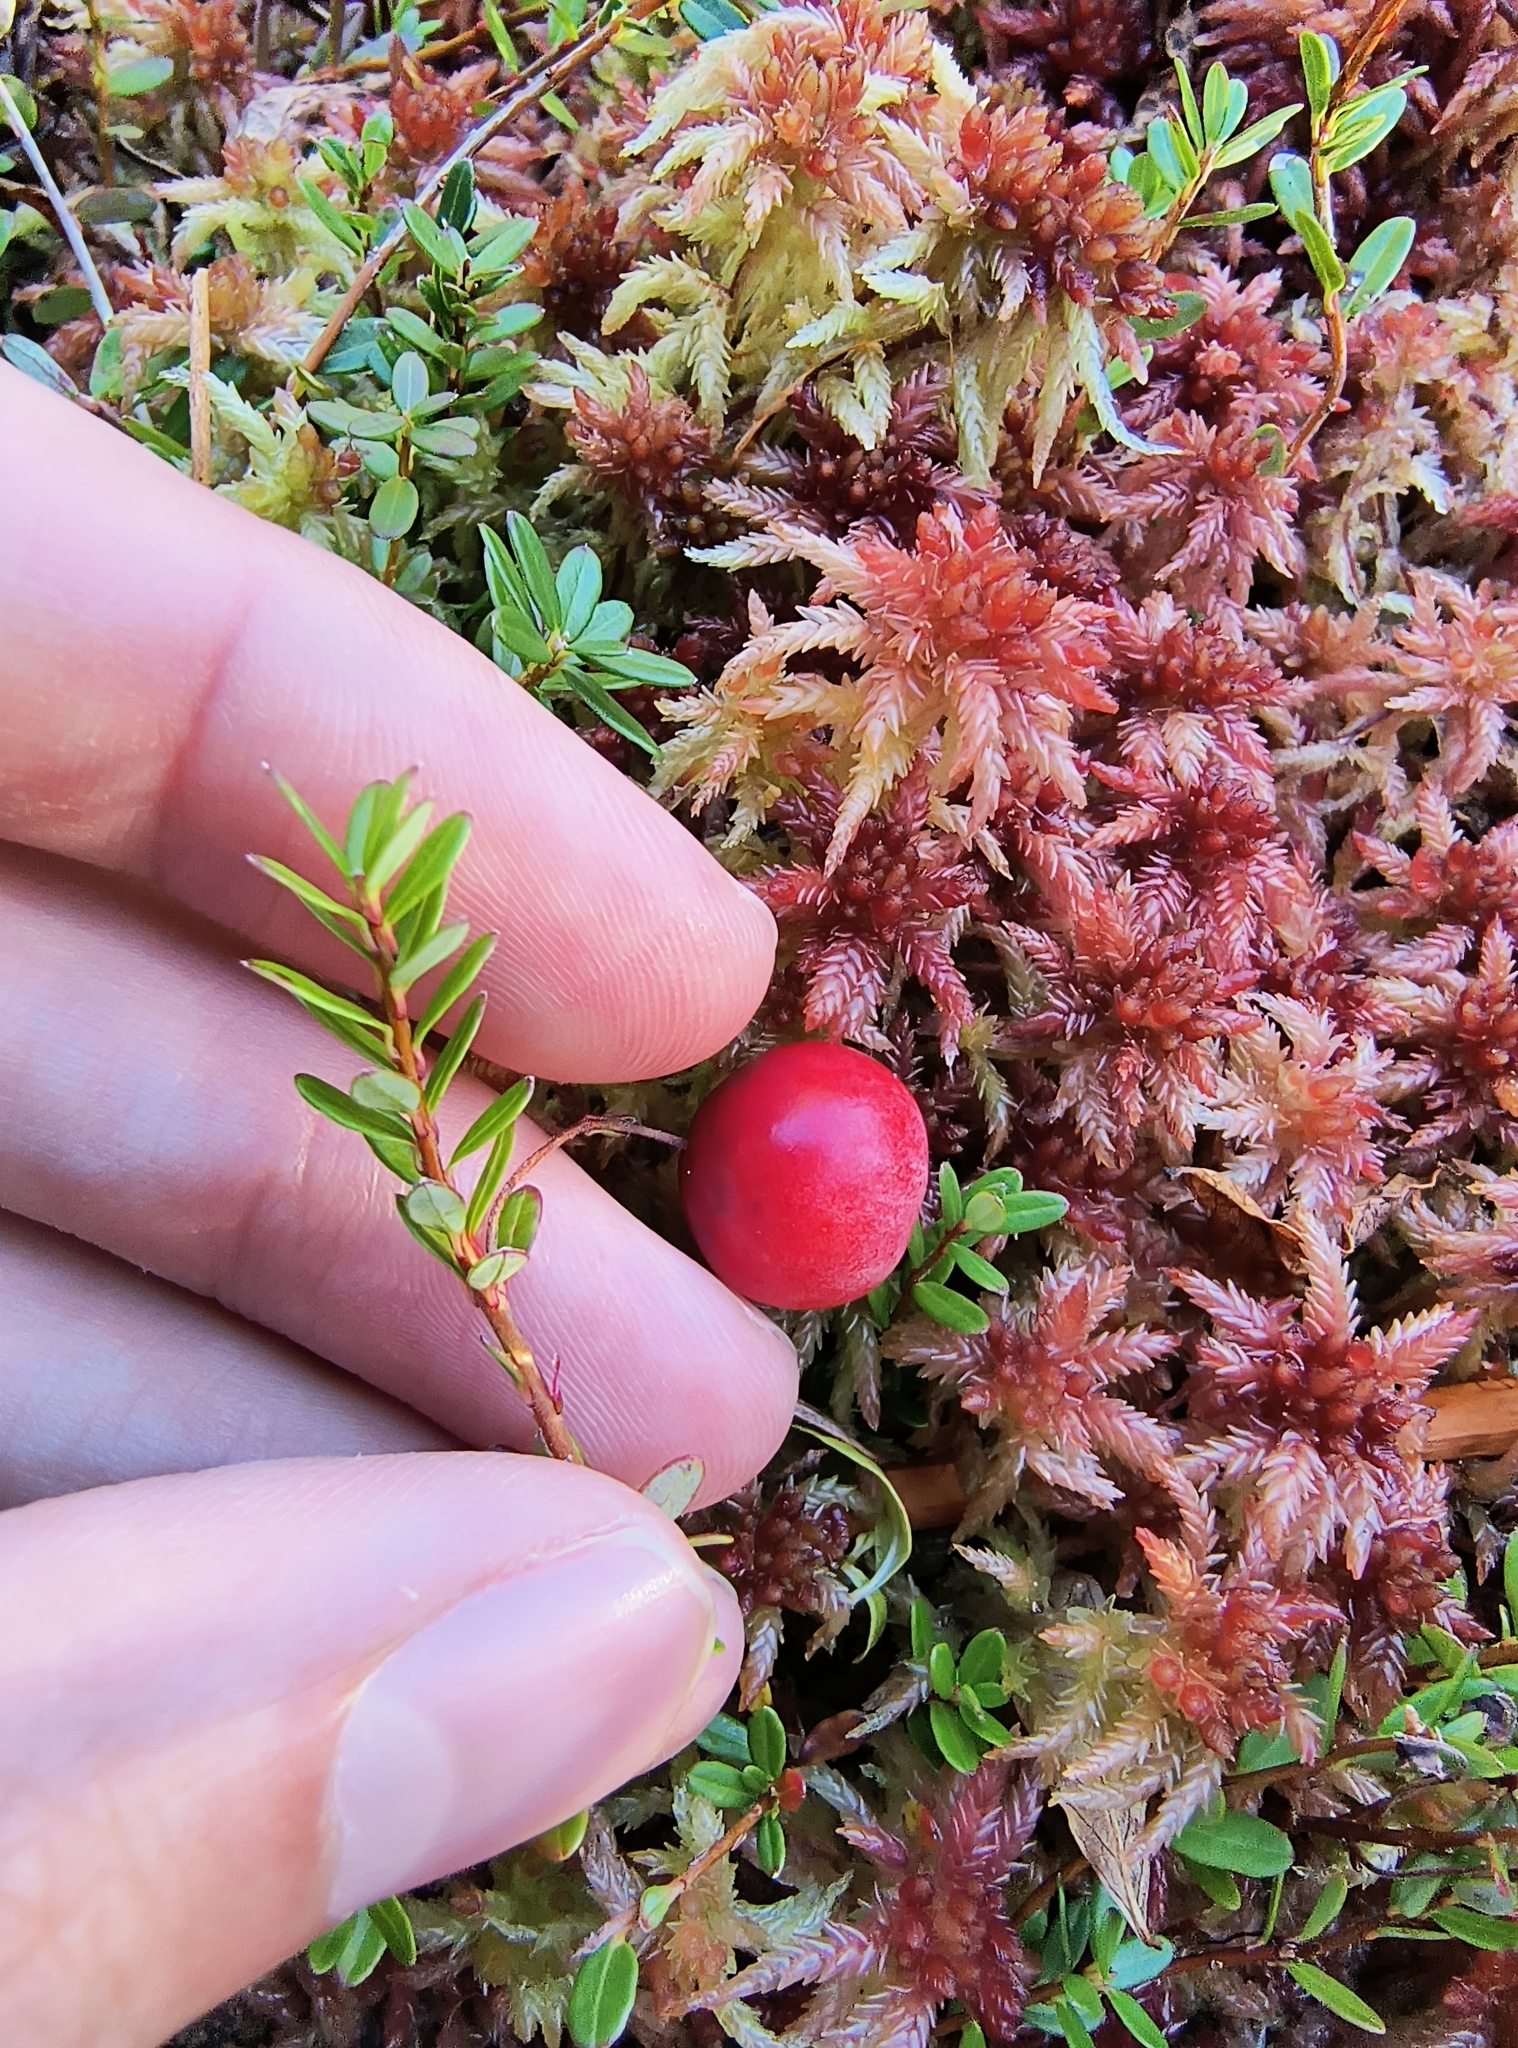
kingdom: Plantae
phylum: Tracheophyta
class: Magnoliopsida
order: Ericales
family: Ericaceae
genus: Vaccinium
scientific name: Vaccinium macrocarpon
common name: American cranberry
